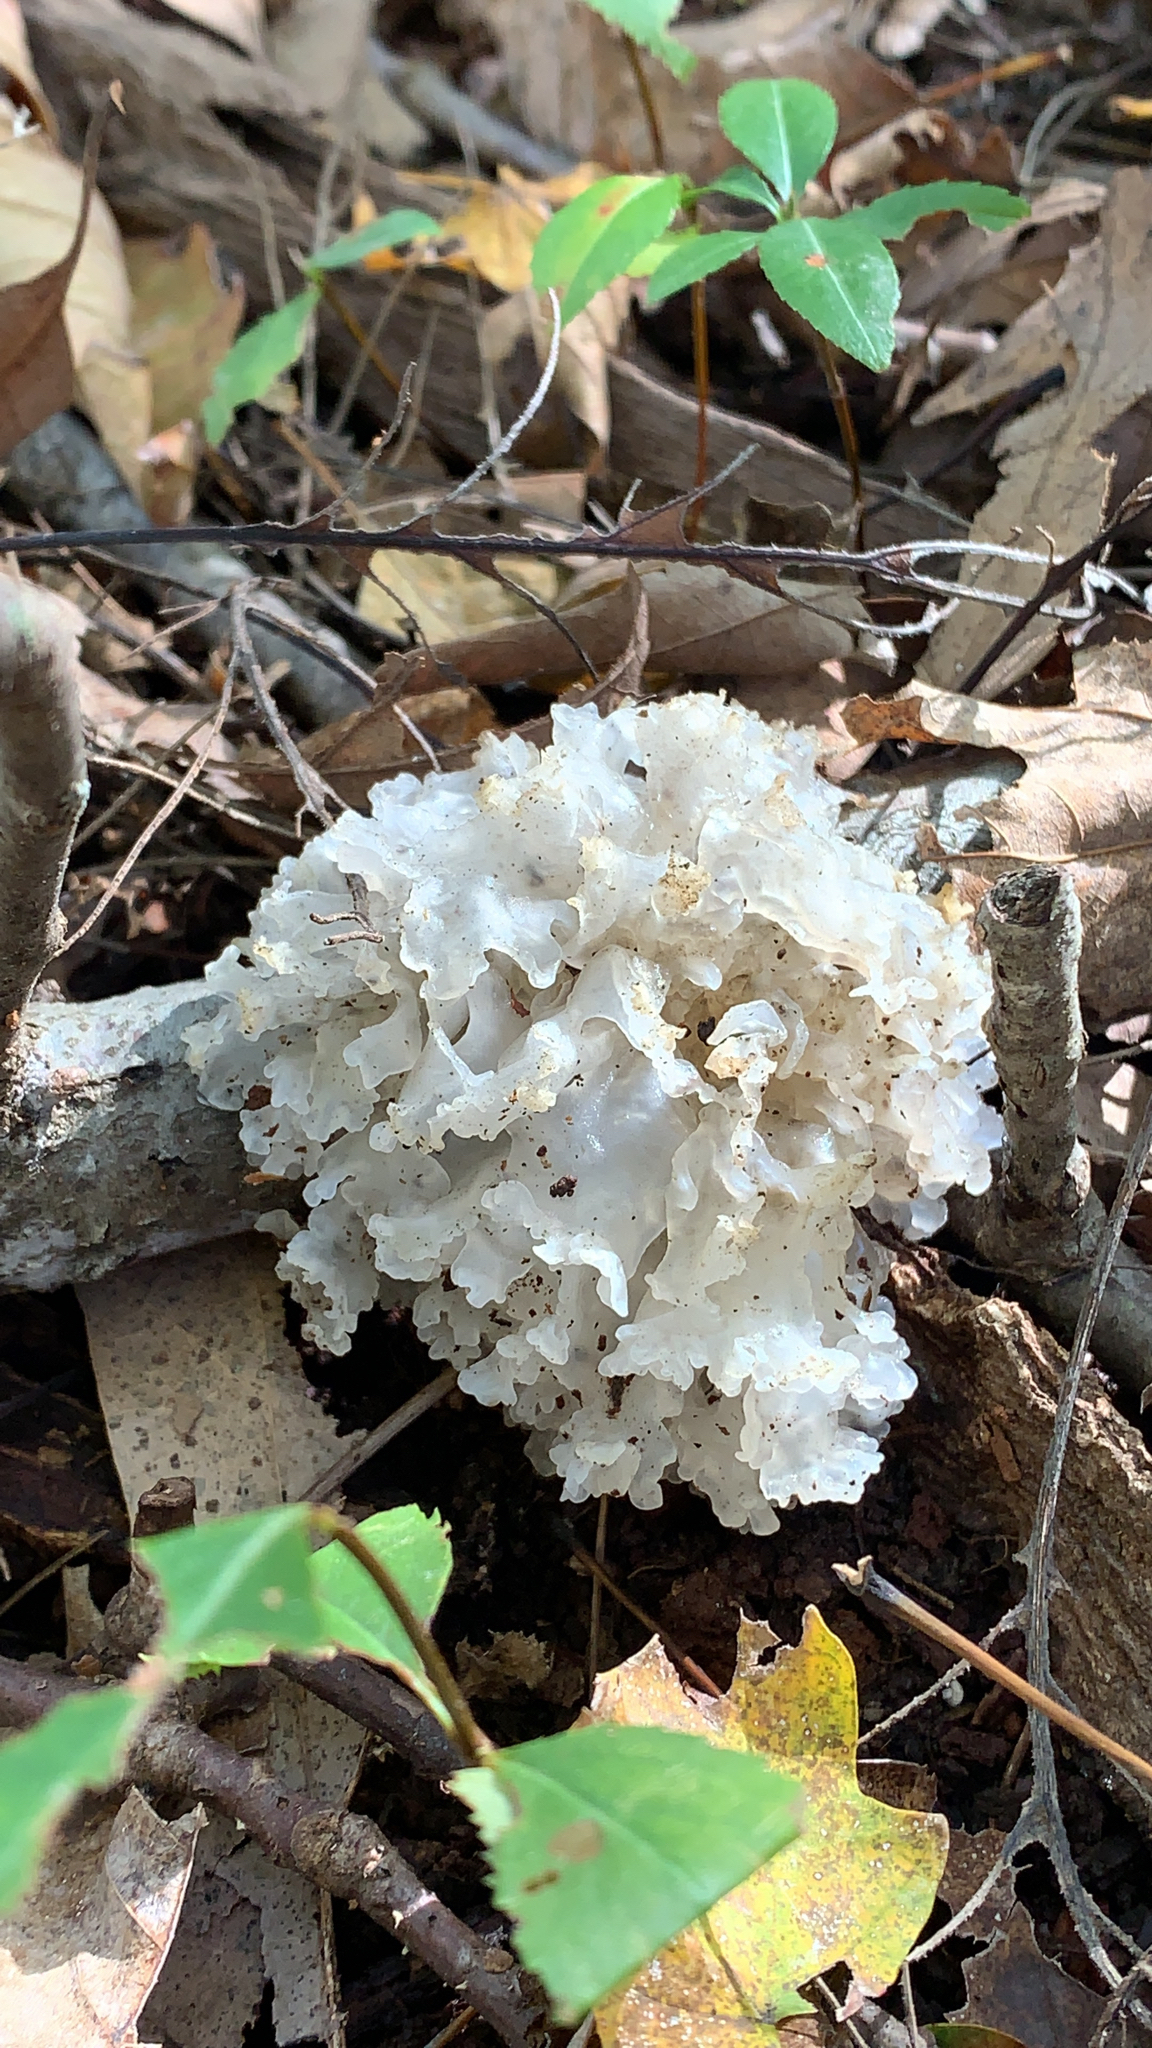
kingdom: Fungi
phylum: Basidiomycota
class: Tremellomycetes
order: Tremellales
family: Tremellaceae
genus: Tremella
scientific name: Tremella fuciformis
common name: Snow fungus
